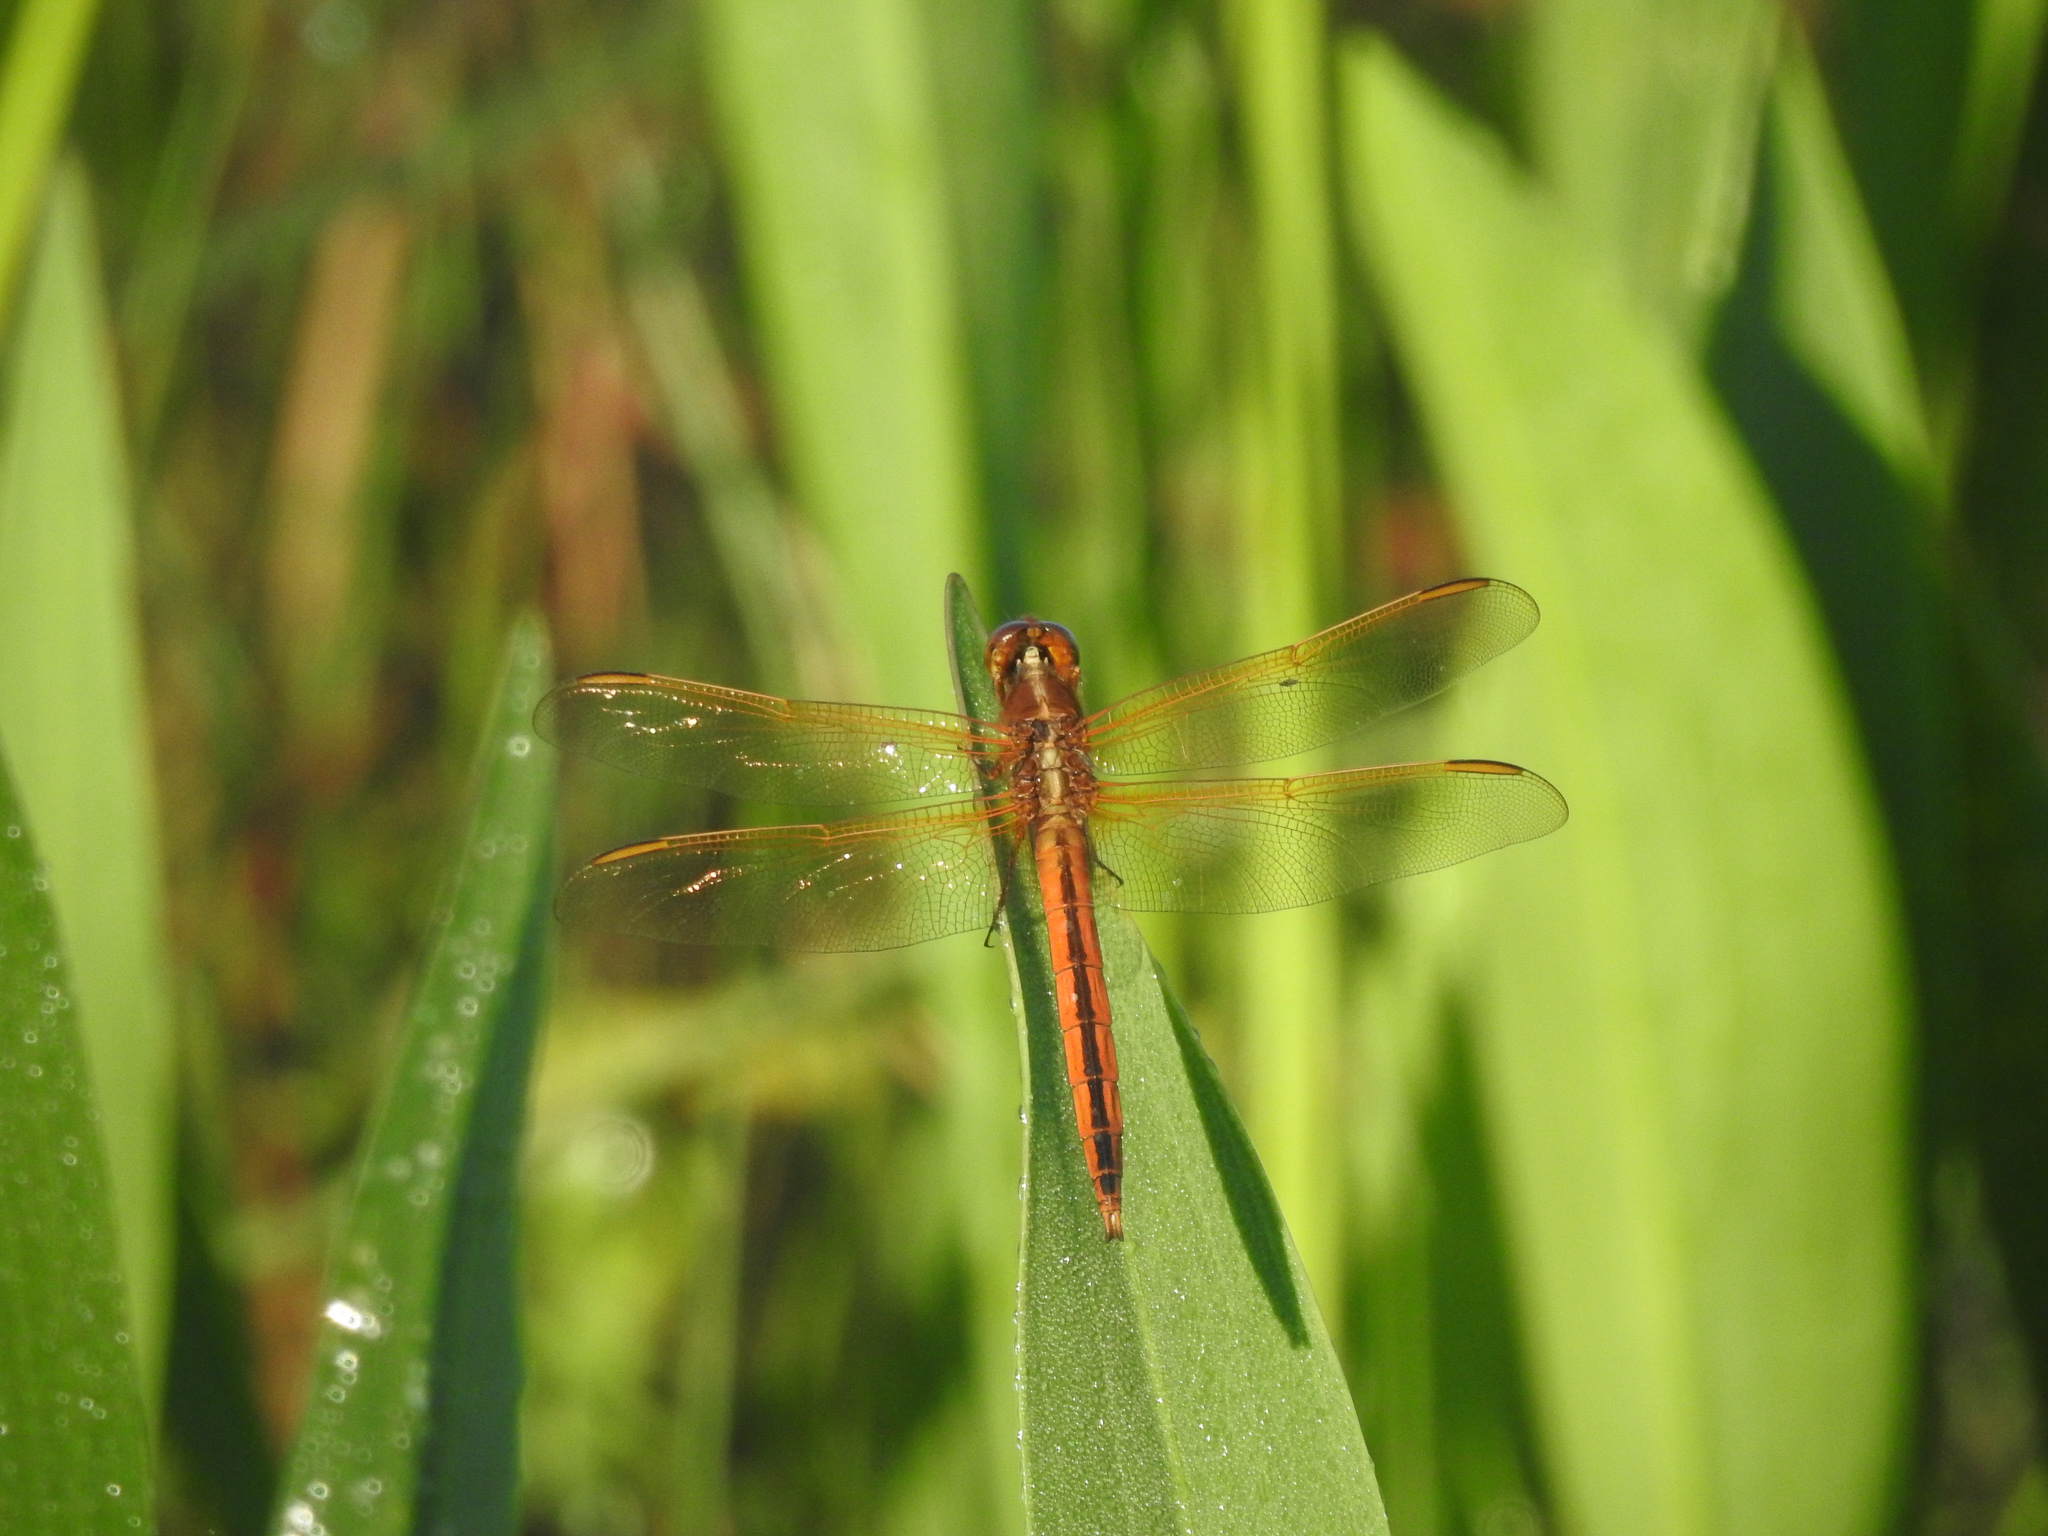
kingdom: Animalia
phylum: Arthropoda
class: Insecta
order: Odonata
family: Libellulidae
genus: Libellula
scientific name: Libellula needhami
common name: Needham's skimmer
